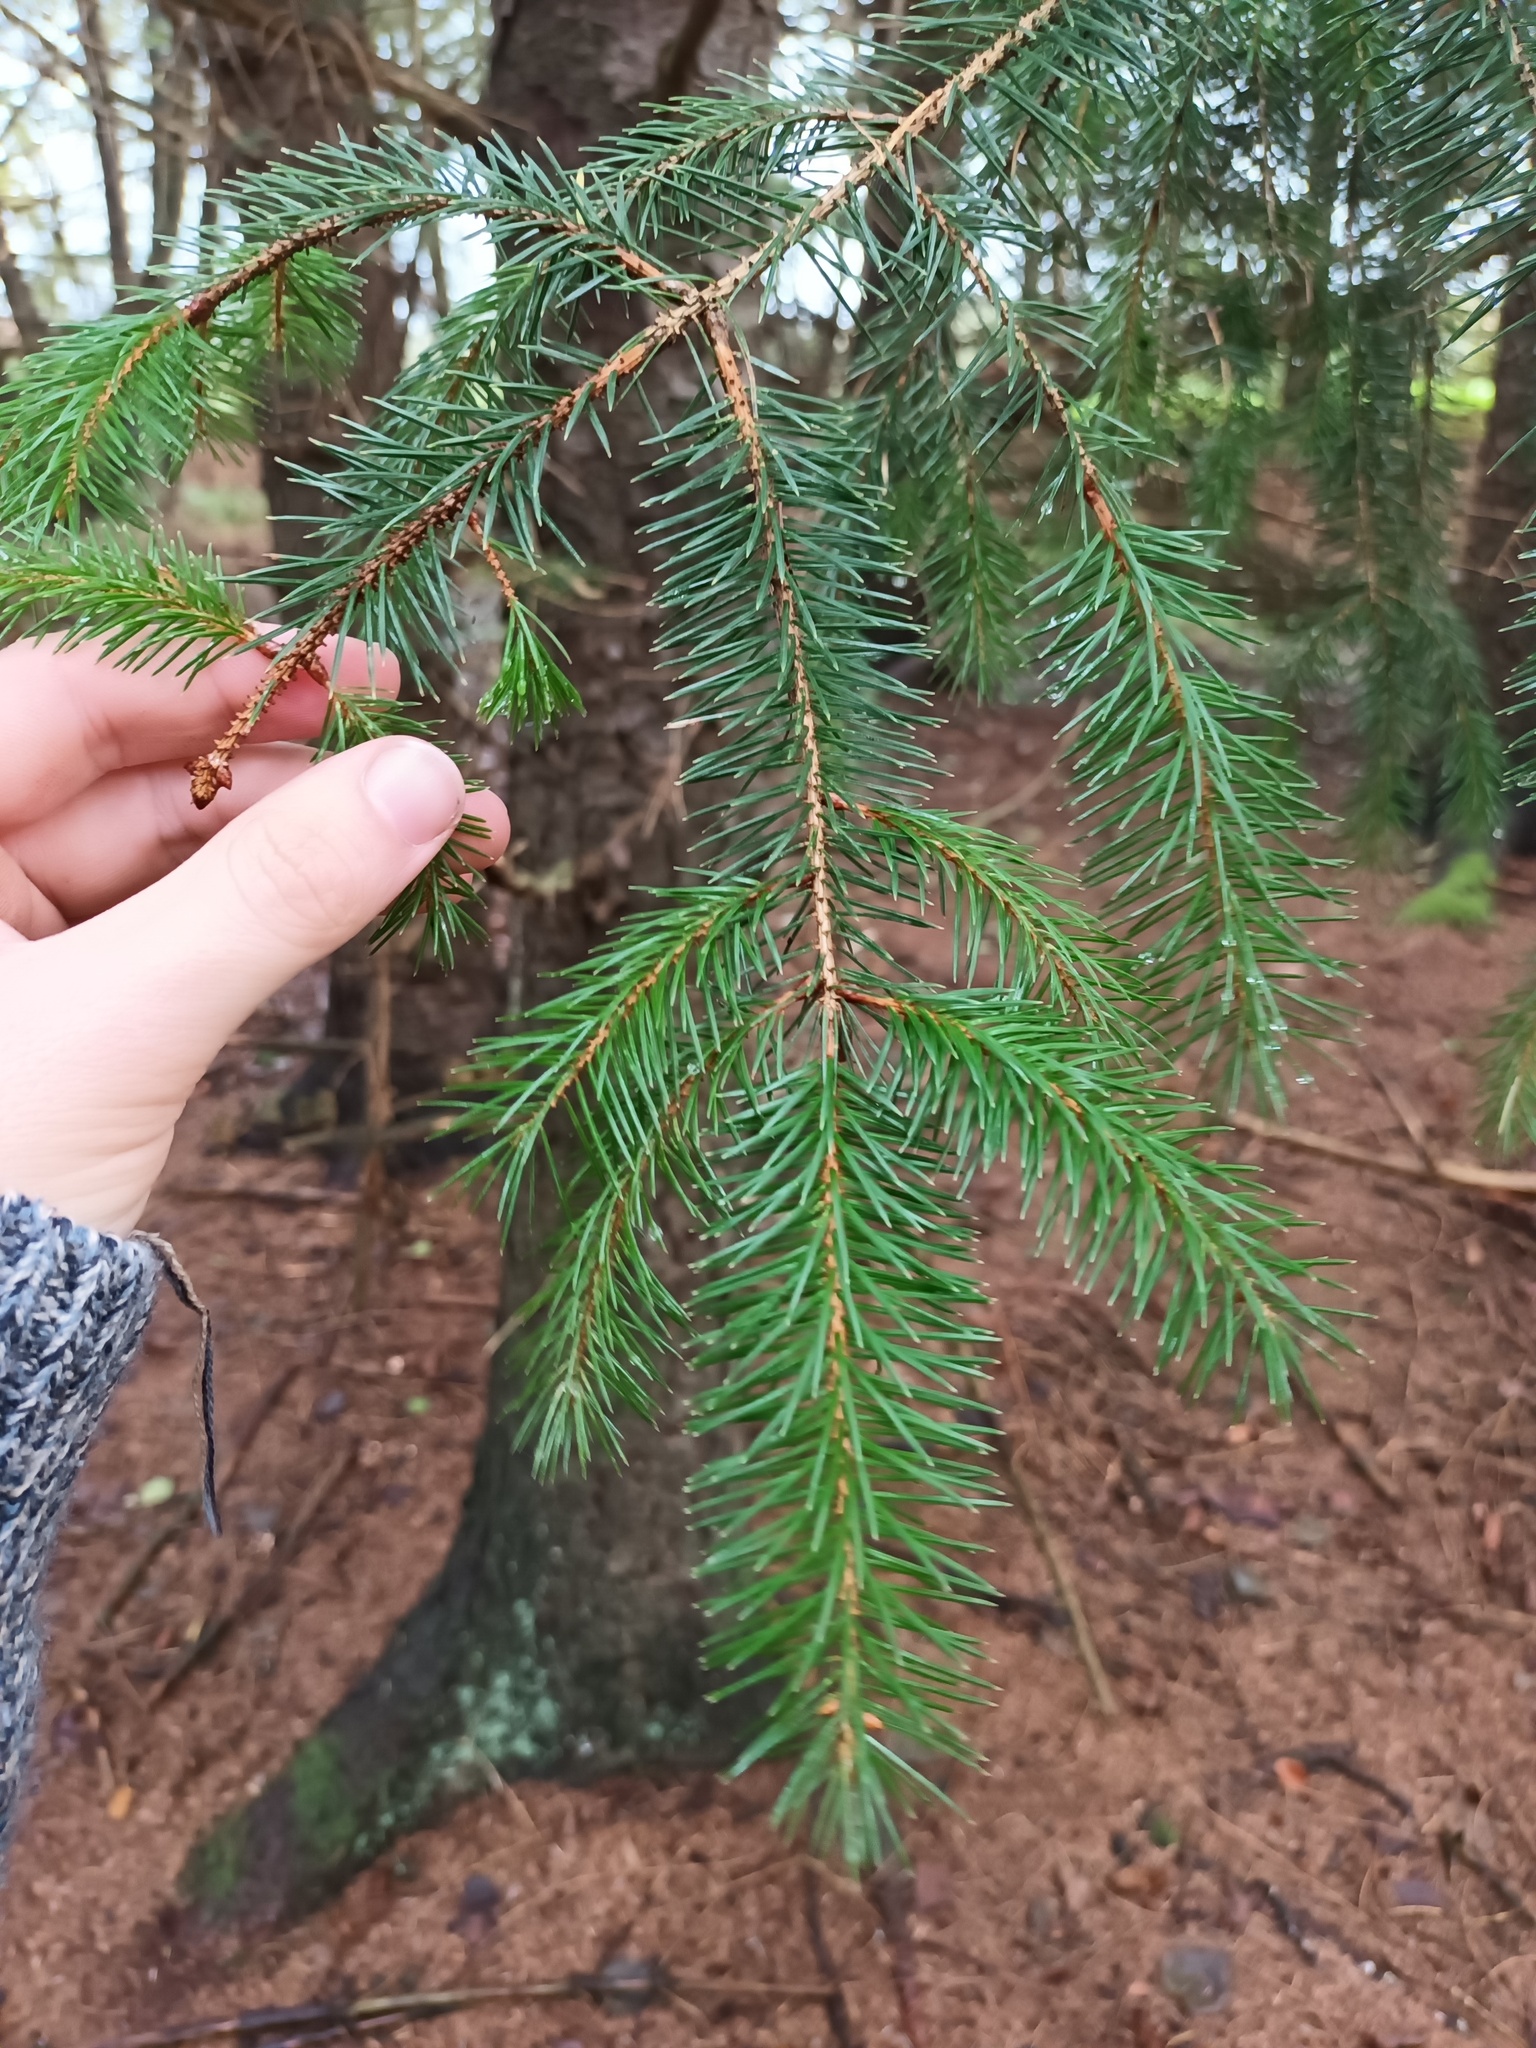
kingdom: Plantae
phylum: Tracheophyta
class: Pinopsida
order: Pinales
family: Pinaceae
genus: Picea
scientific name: Picea abies
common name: Norway spruce
